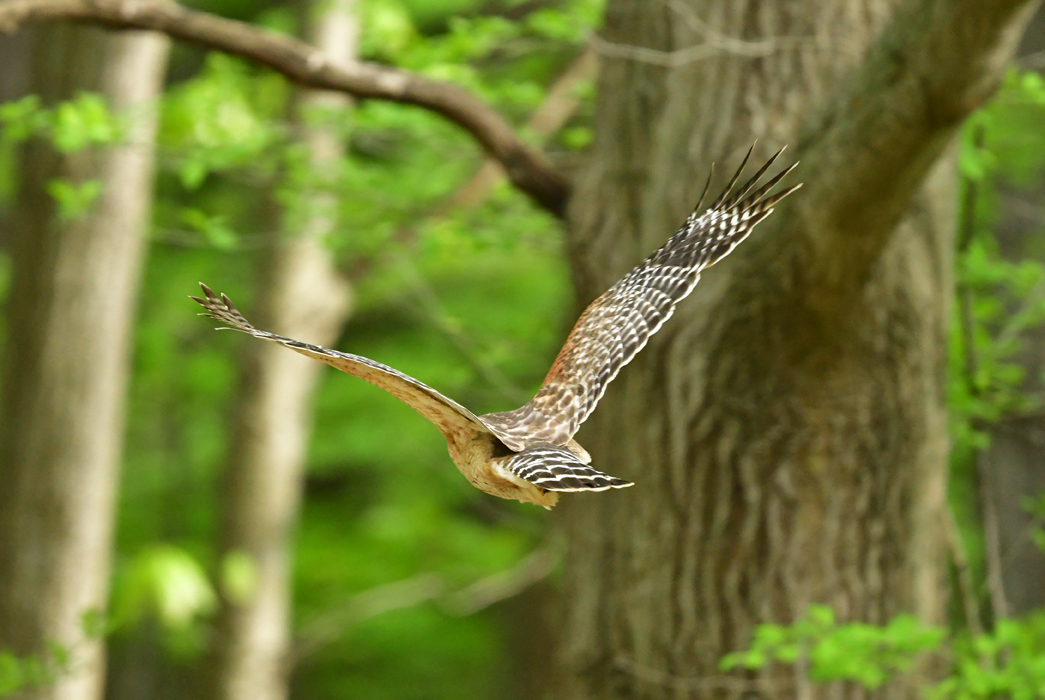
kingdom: Animalia
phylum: Chordata
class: Aves
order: Accipitriformes
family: Accipitridae
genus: Buteo
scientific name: Buteo lineatus
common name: Red-shouldered hawk
